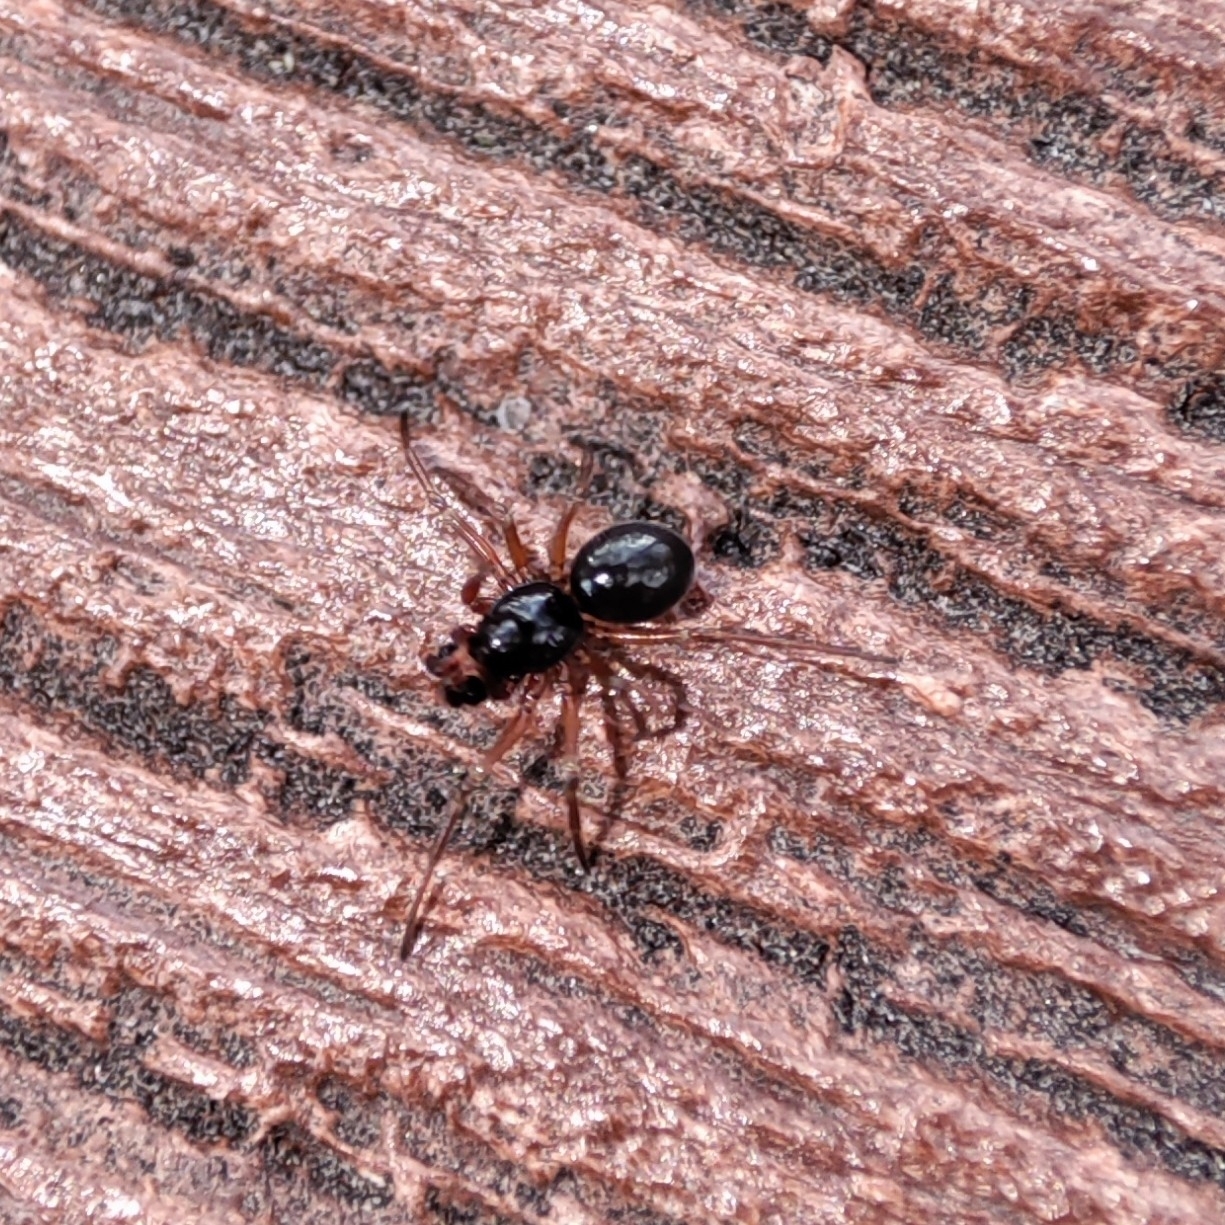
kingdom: Animalia
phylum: Arthropoda
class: Arachnida
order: Araneae
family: Linyphiidae
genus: Erigone
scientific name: Erigone
